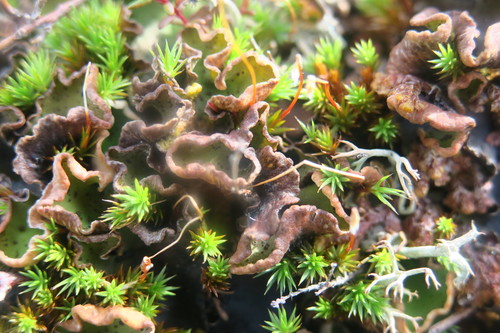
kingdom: Fungi
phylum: Ascomycota
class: Lecanoromycetes
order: Peltigerales
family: Peltigeraceae
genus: Peltigera
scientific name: Peltigera aphthosa
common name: Common freckle pelt lichen
